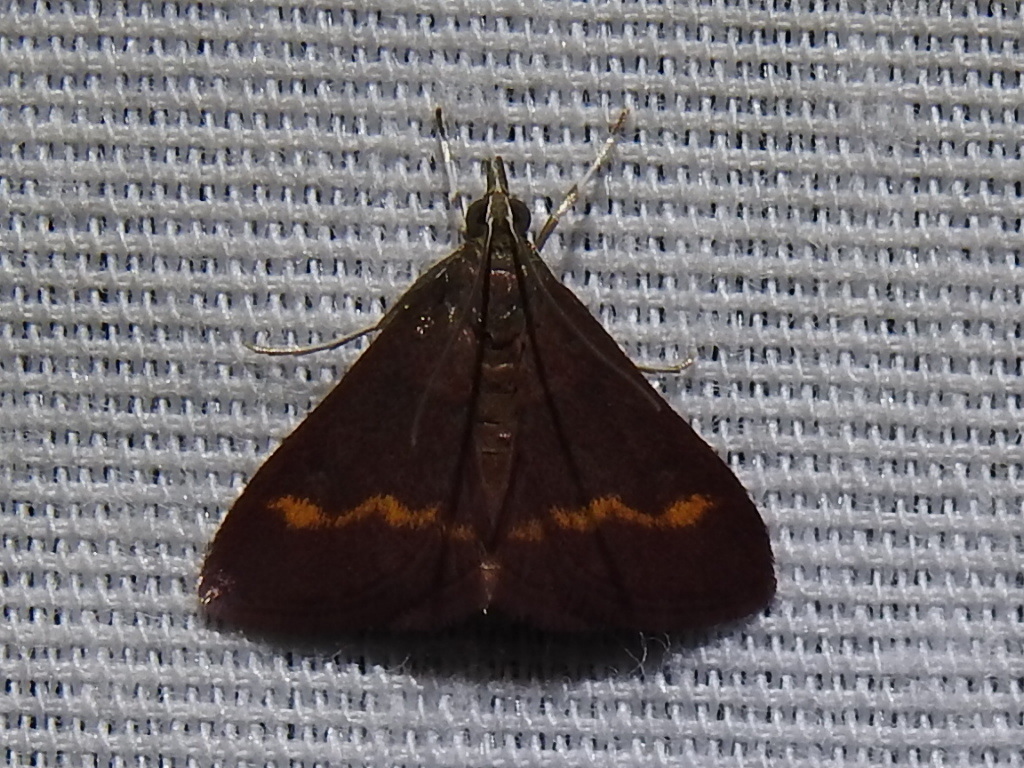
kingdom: Animalia
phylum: Arthropoda
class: Insecta
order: Lepidoptera
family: Crambidae
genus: Pyrausta
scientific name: Pyrausta pseuderosnealis
